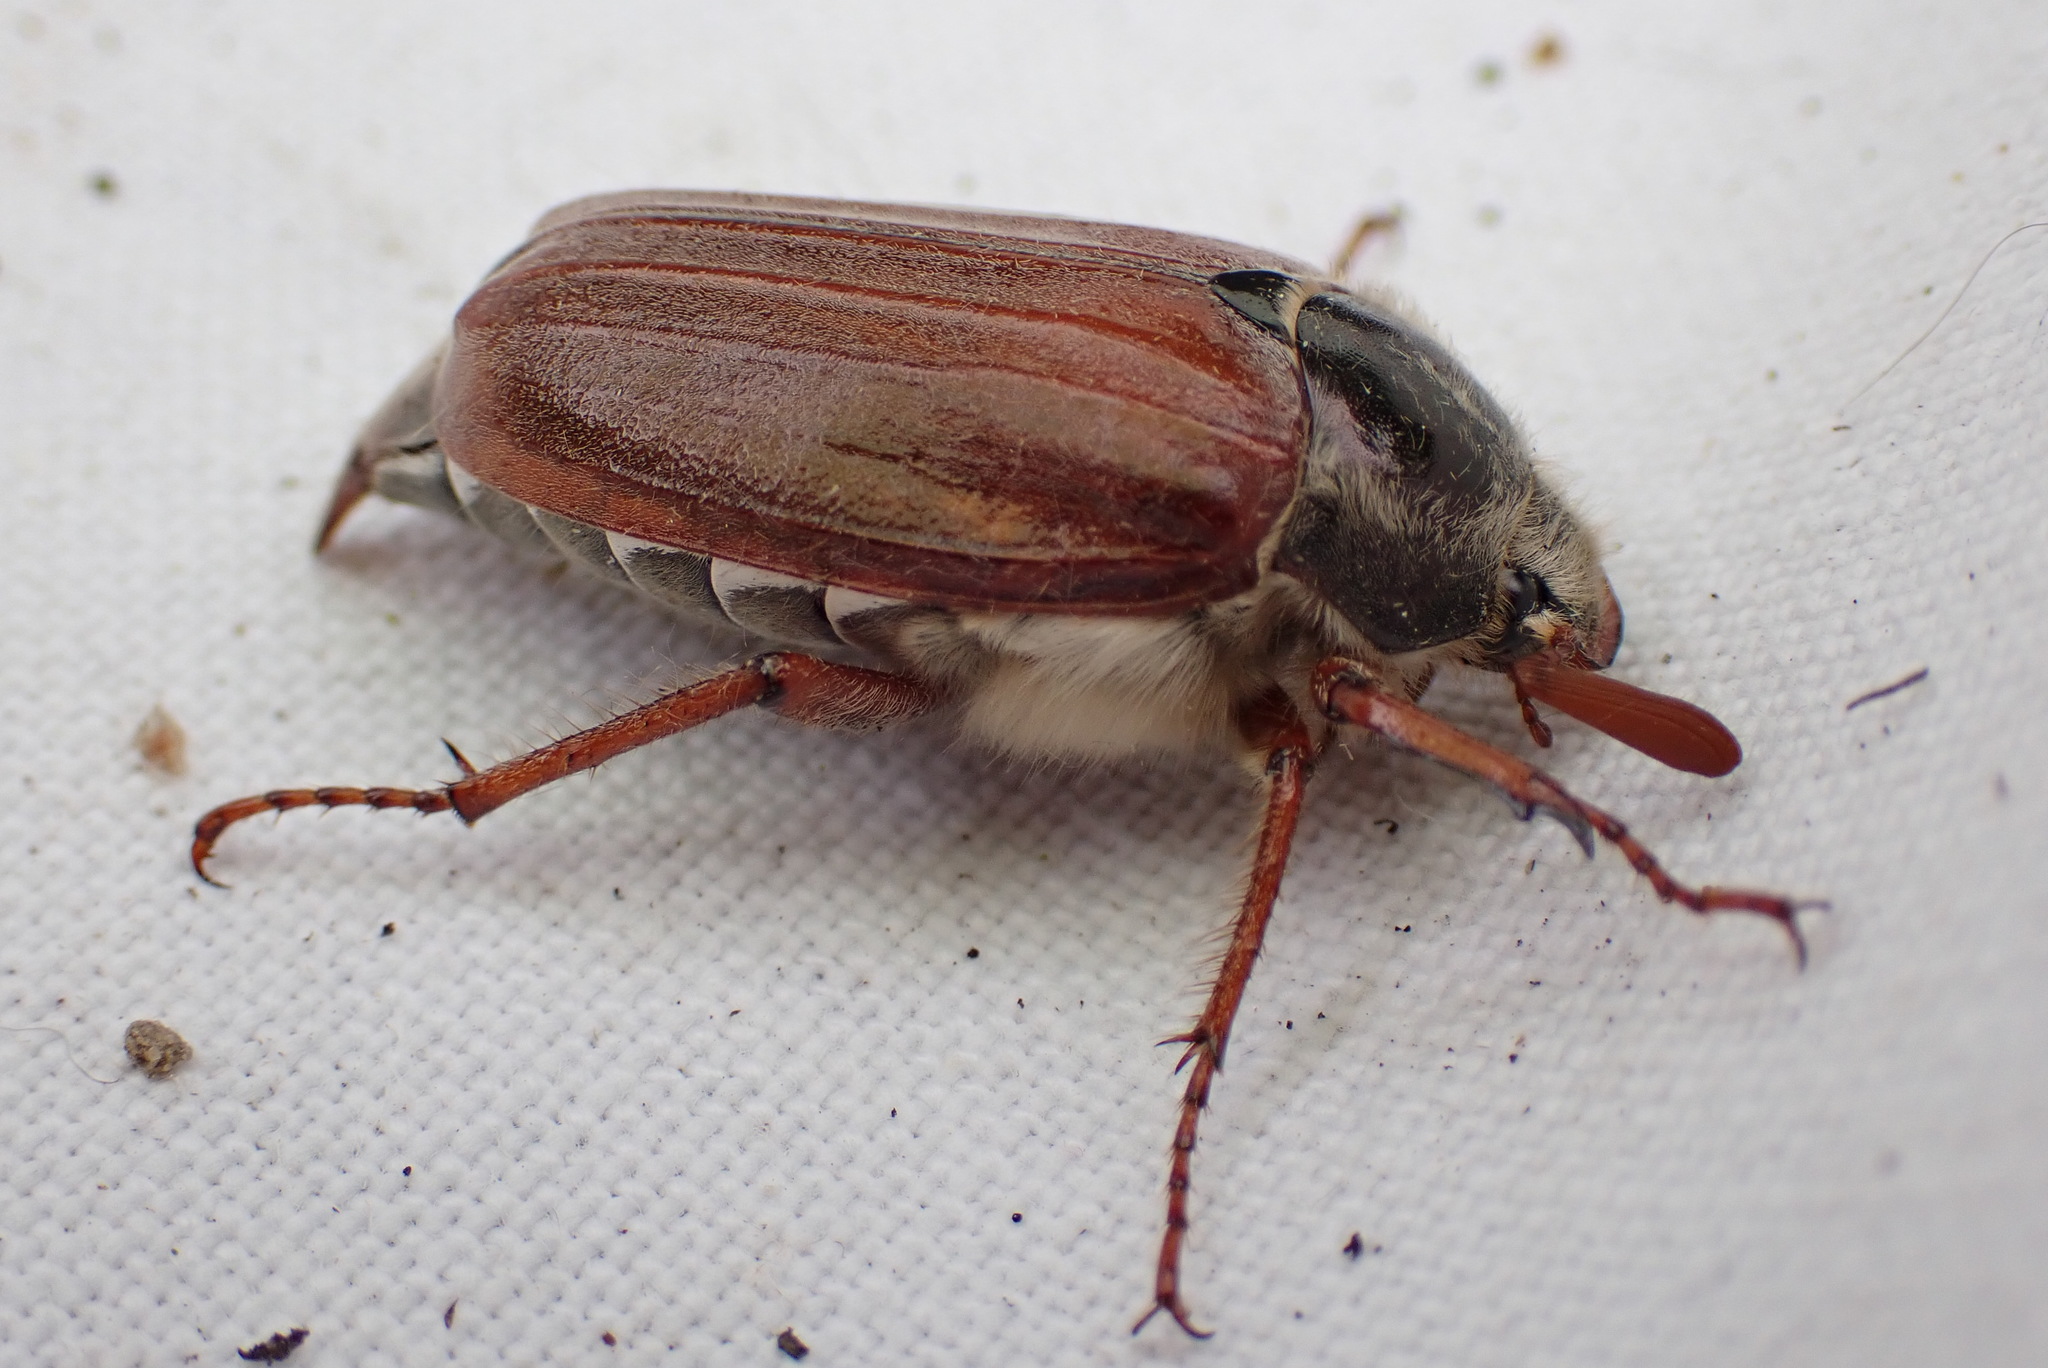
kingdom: Animalia
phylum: Arthropoda
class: Insecta
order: Coleoptera
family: Scarabaeidae
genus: Melolontha
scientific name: Melolontha melolontha
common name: Cockchafer maybeetle
